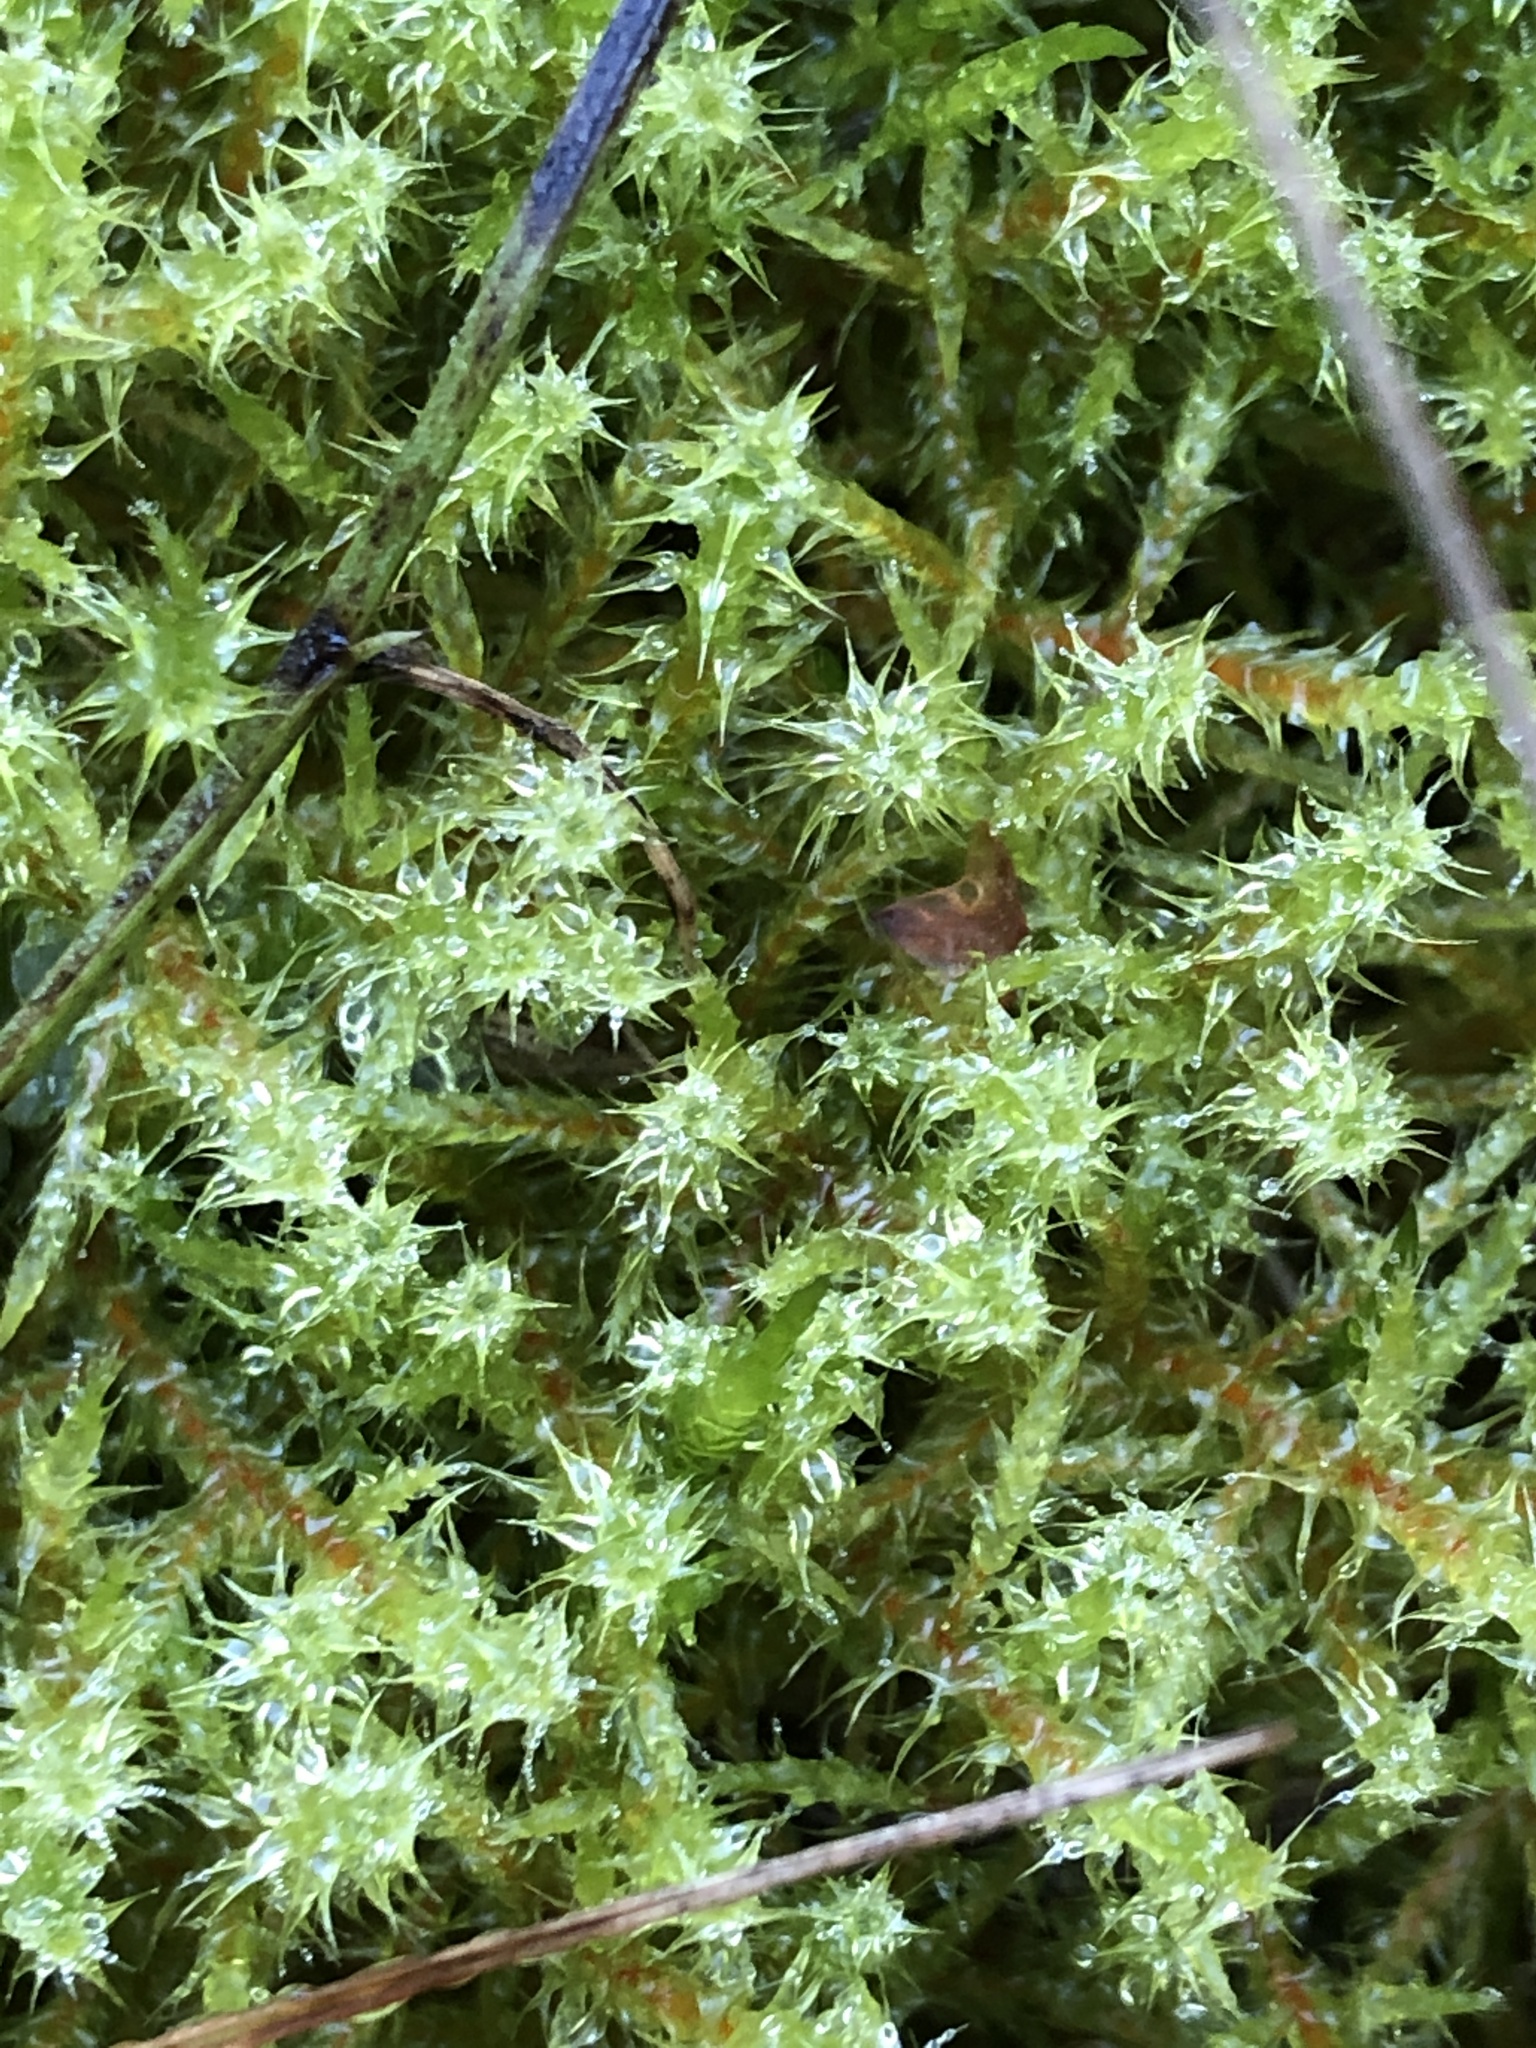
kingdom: Plantae
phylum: Bryophyta
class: Bryopsida
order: Hypnales
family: Hylocomiaceae
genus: Rhytidiadelphus
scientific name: Rhytidiadelphus squarrosus
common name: Springy turf-moss
